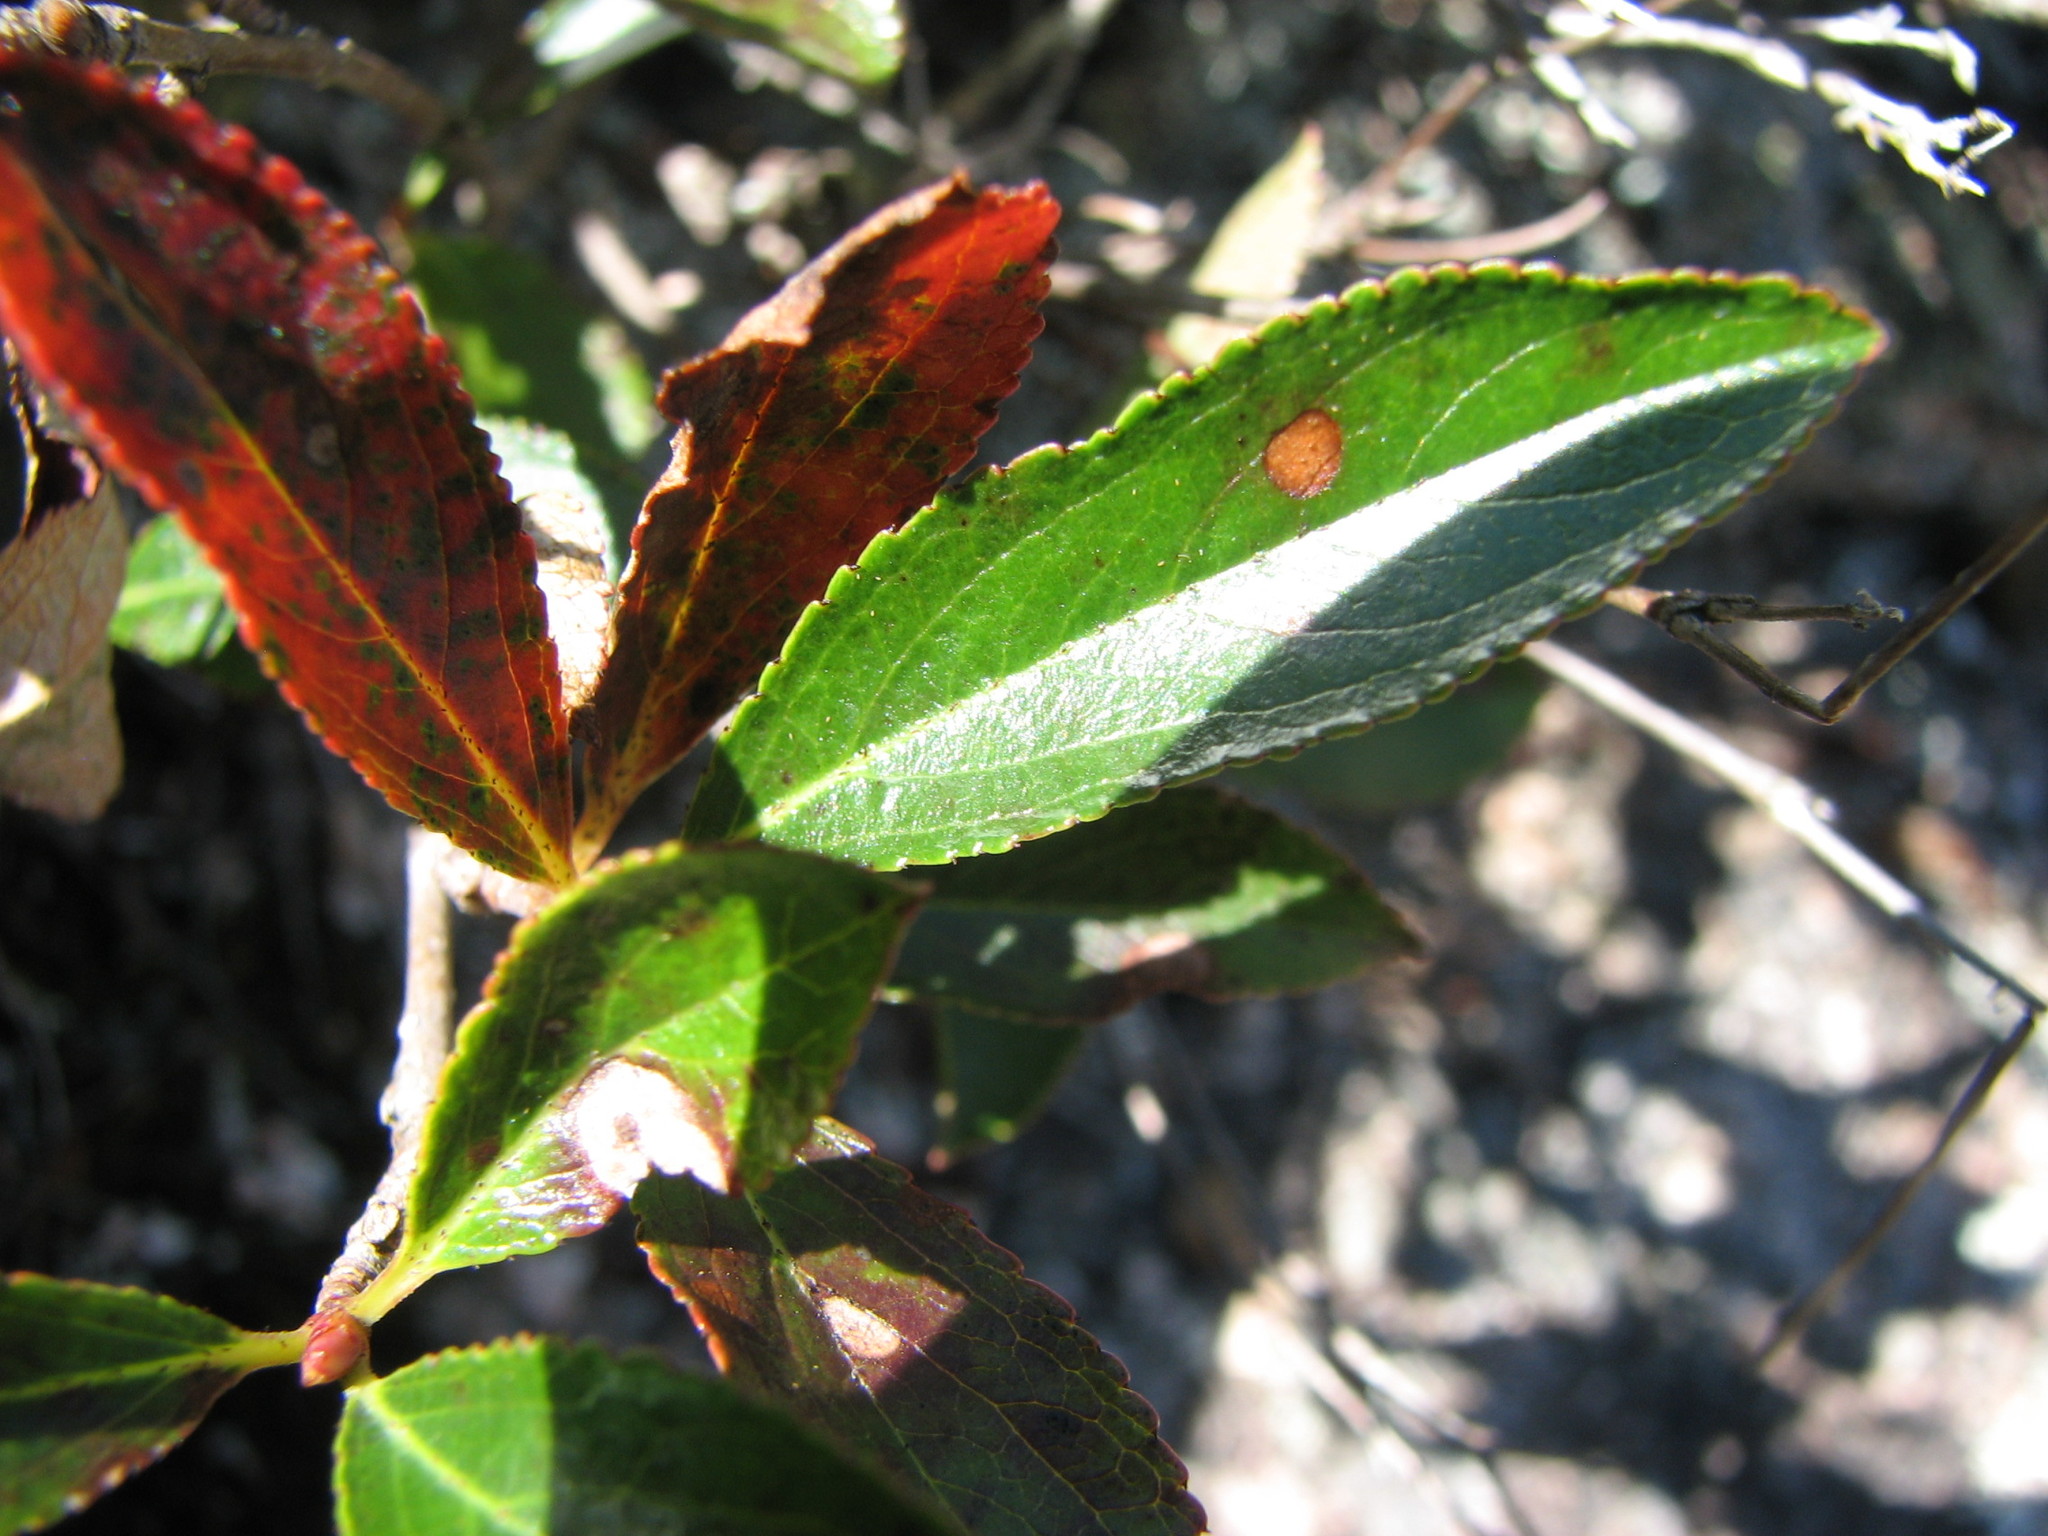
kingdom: Plantae
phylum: Tracheophyta
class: Magnoliopsida
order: Rosales
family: Rosaceae
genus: Aronia
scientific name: Aronia melanocarpa
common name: Black chokeberry
